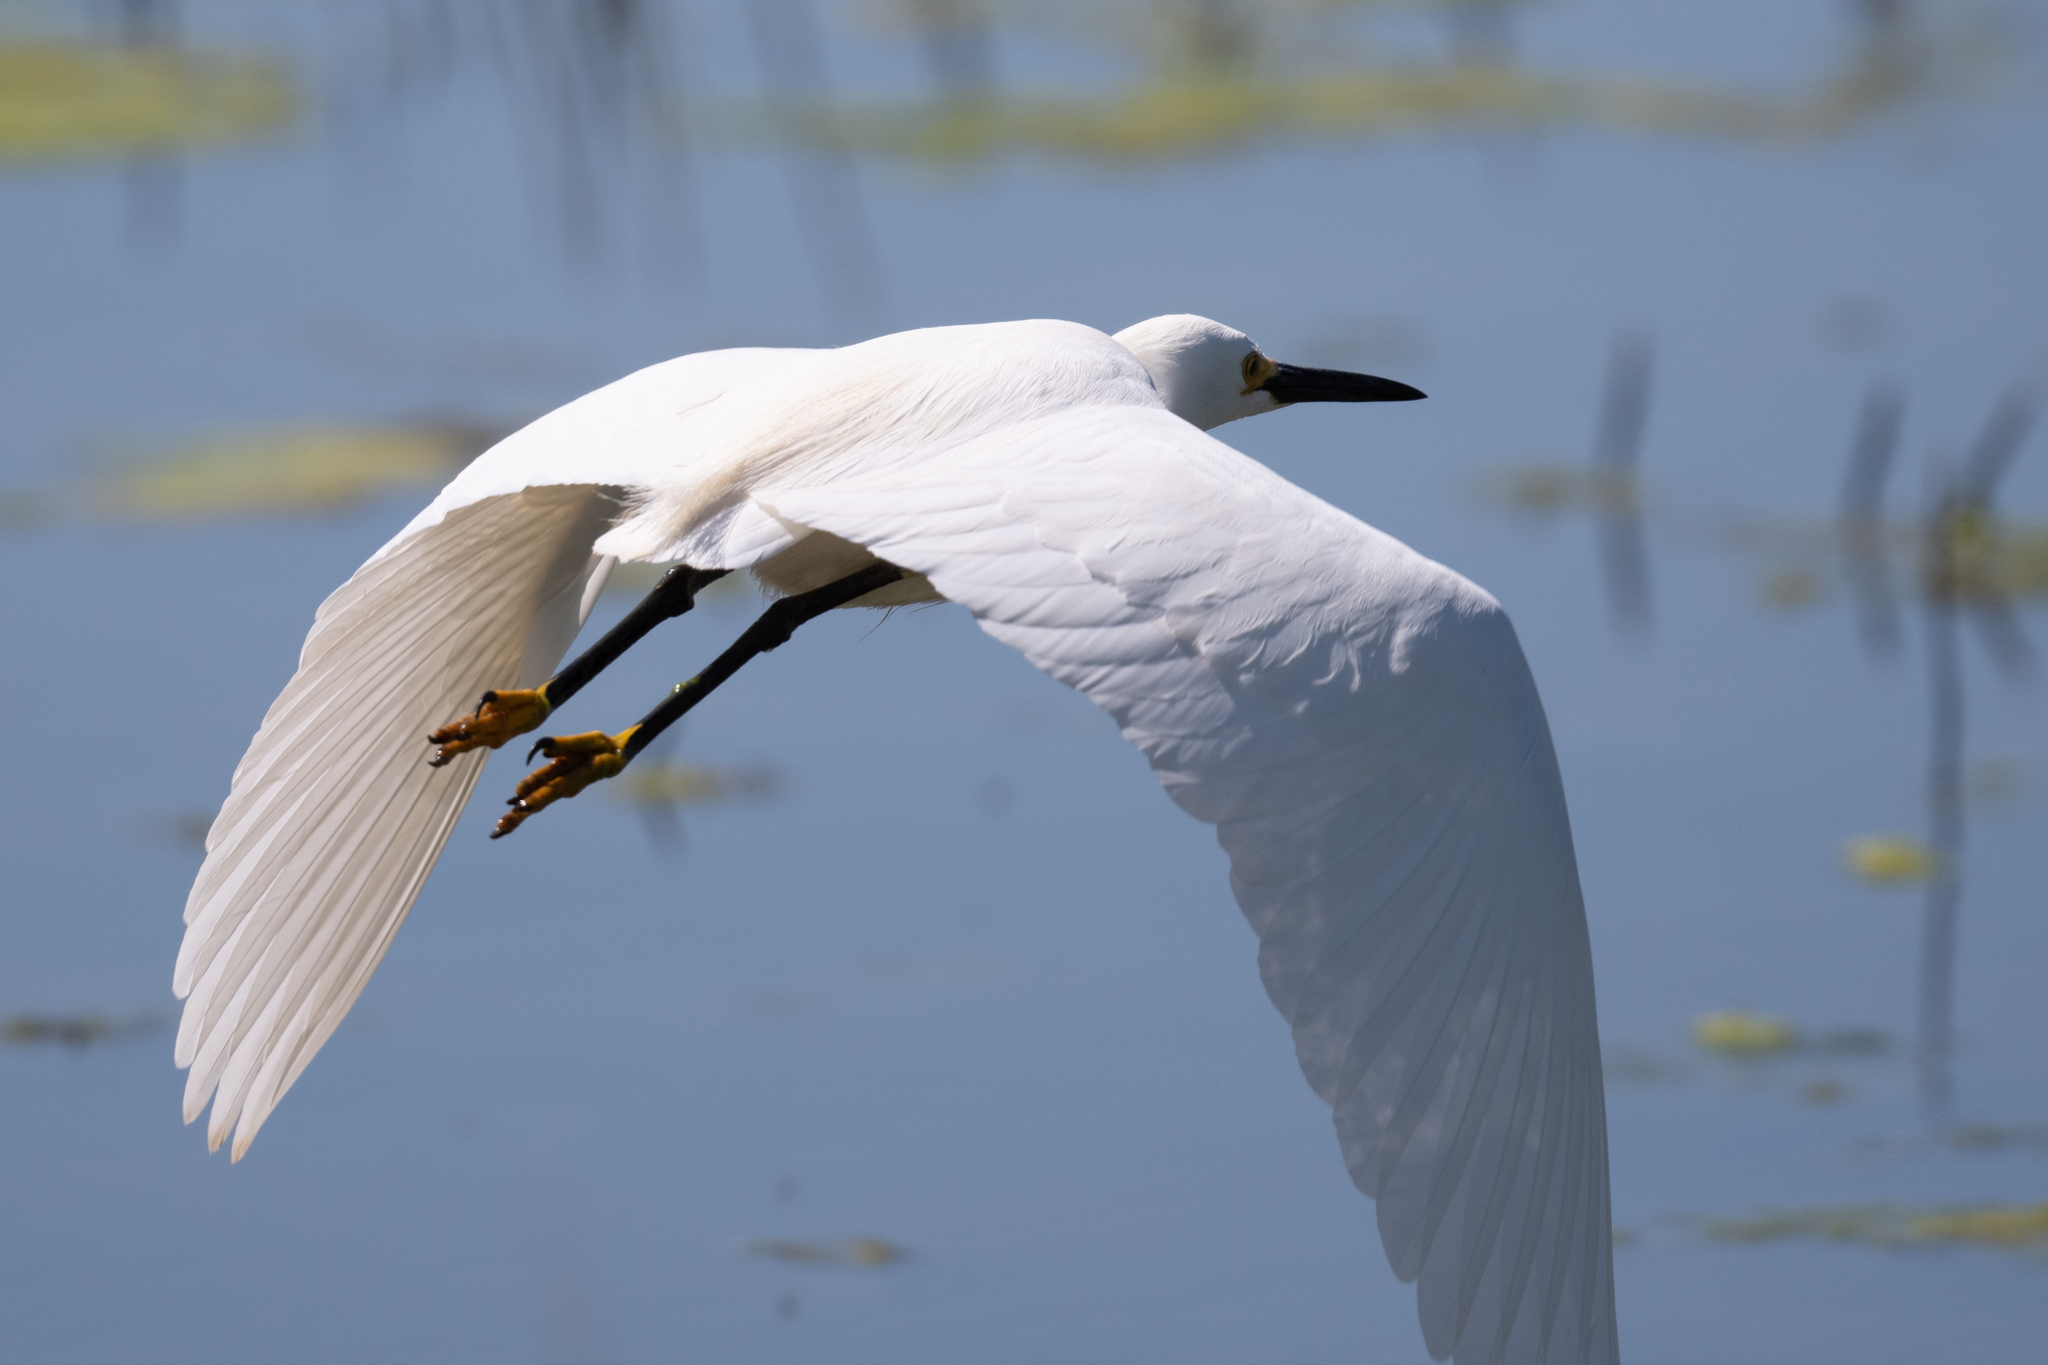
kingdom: Animalia
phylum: Chordata
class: Aves
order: Pelecaniformes
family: Ardeidae
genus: Egretta
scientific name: Egretta thula
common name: Snowy egret
